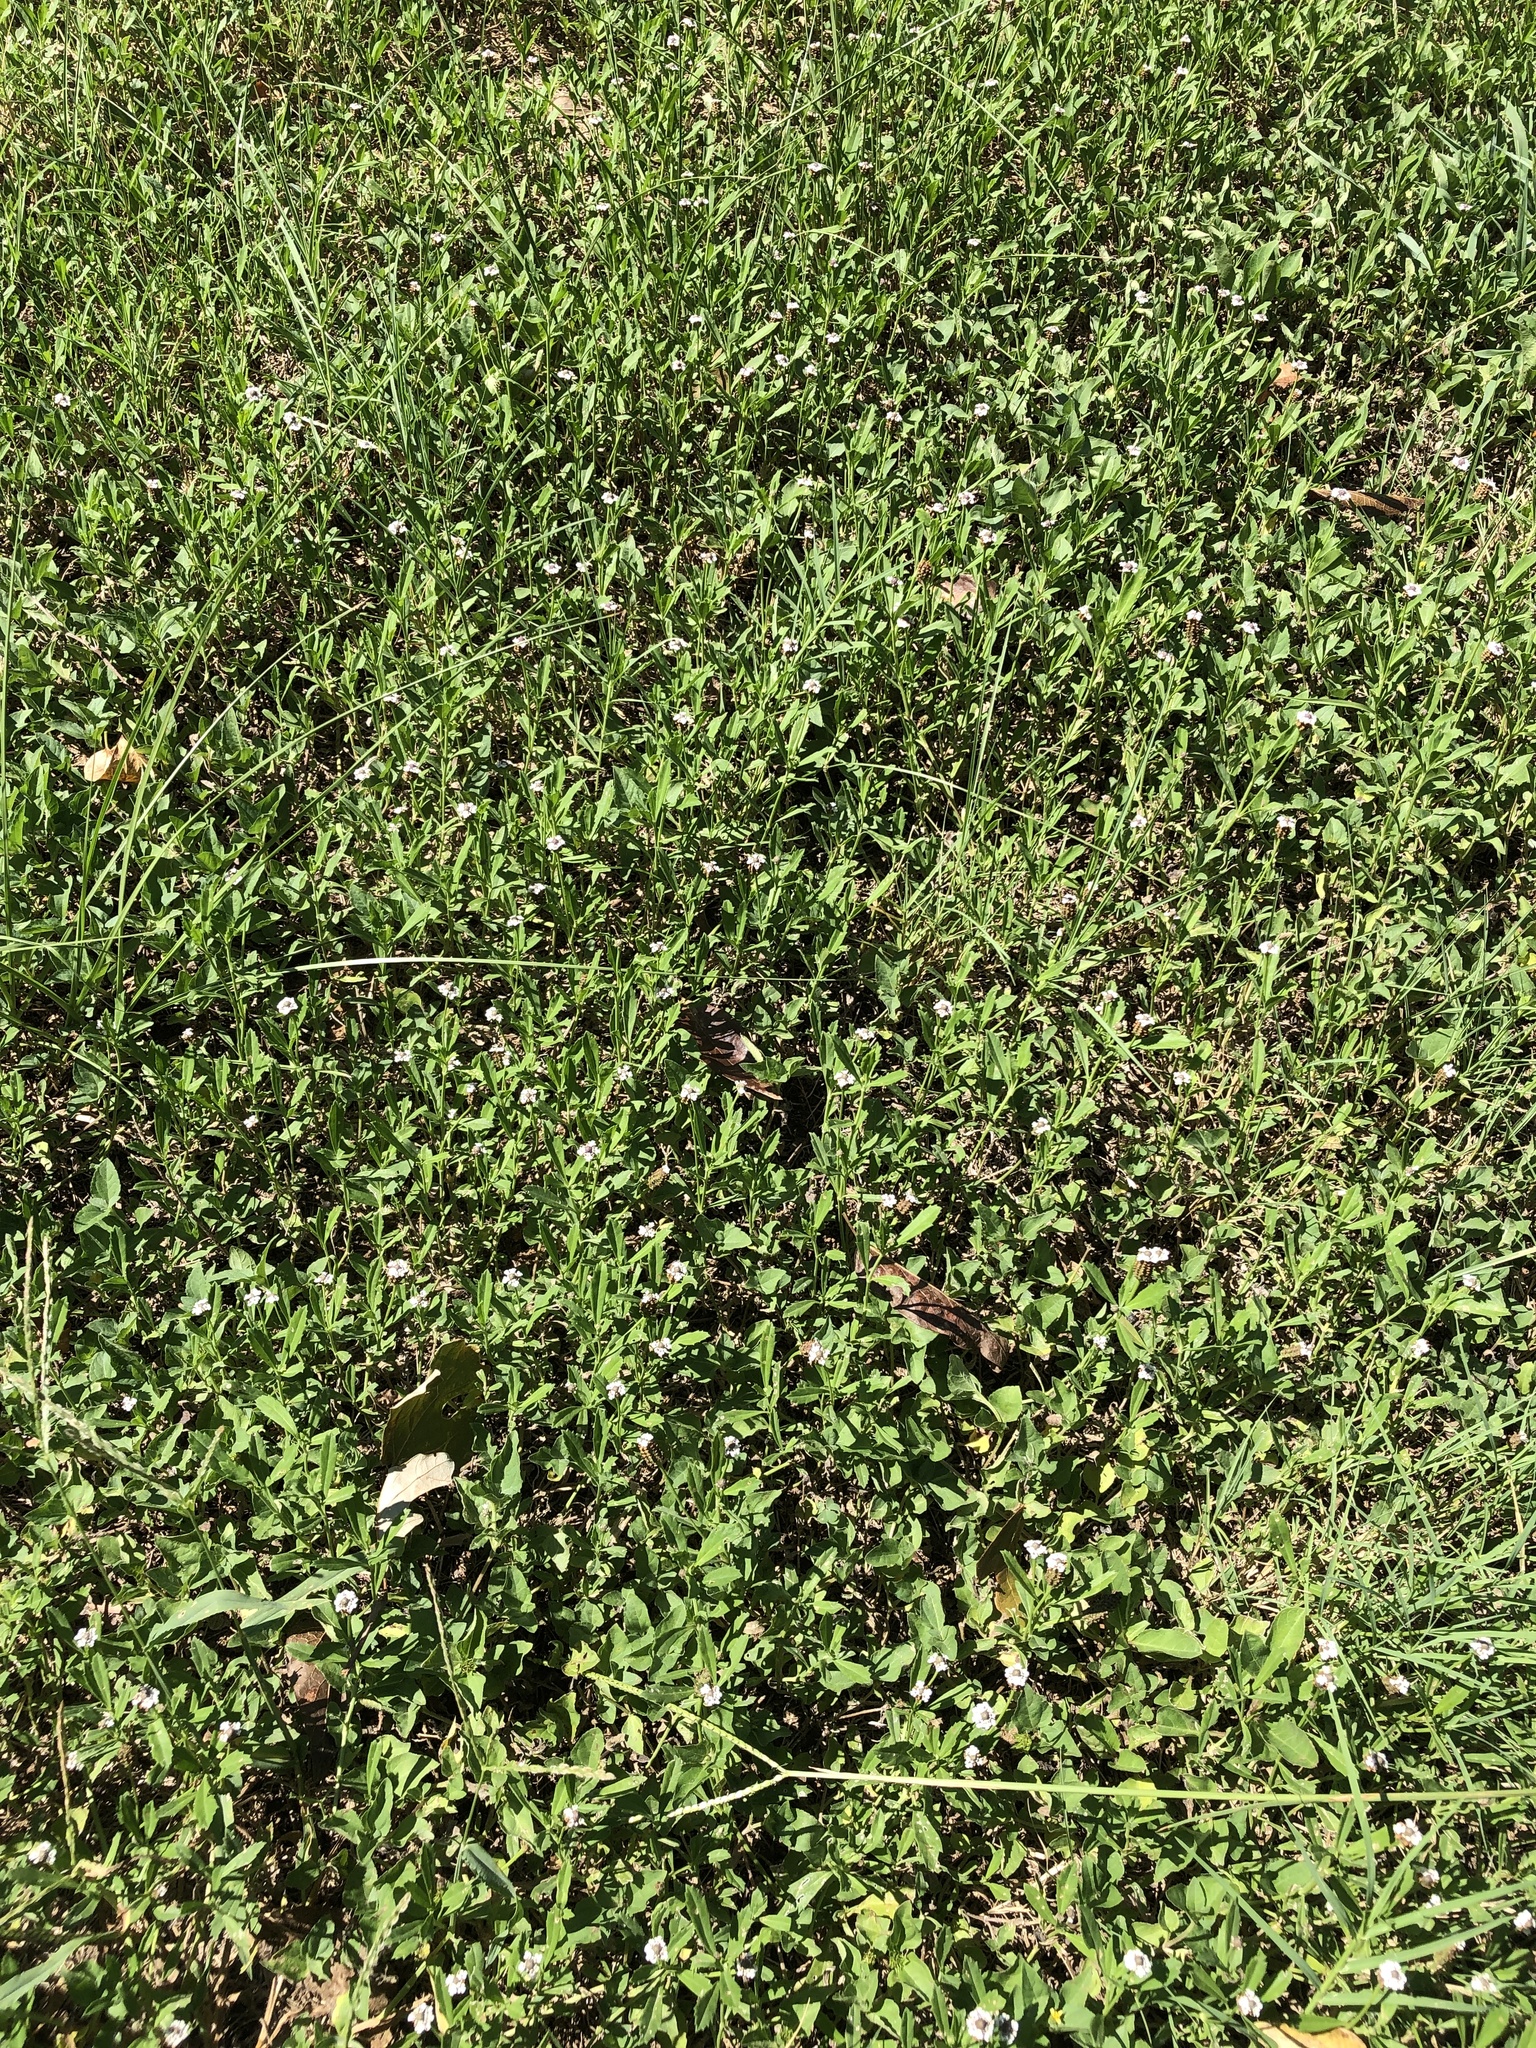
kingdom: Plantae
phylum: Tracheophyta
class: Magnoliopsida
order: Lamiales
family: Verbenaceae
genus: Phyla
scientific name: Phyla nodiflora
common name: Frogfruit
